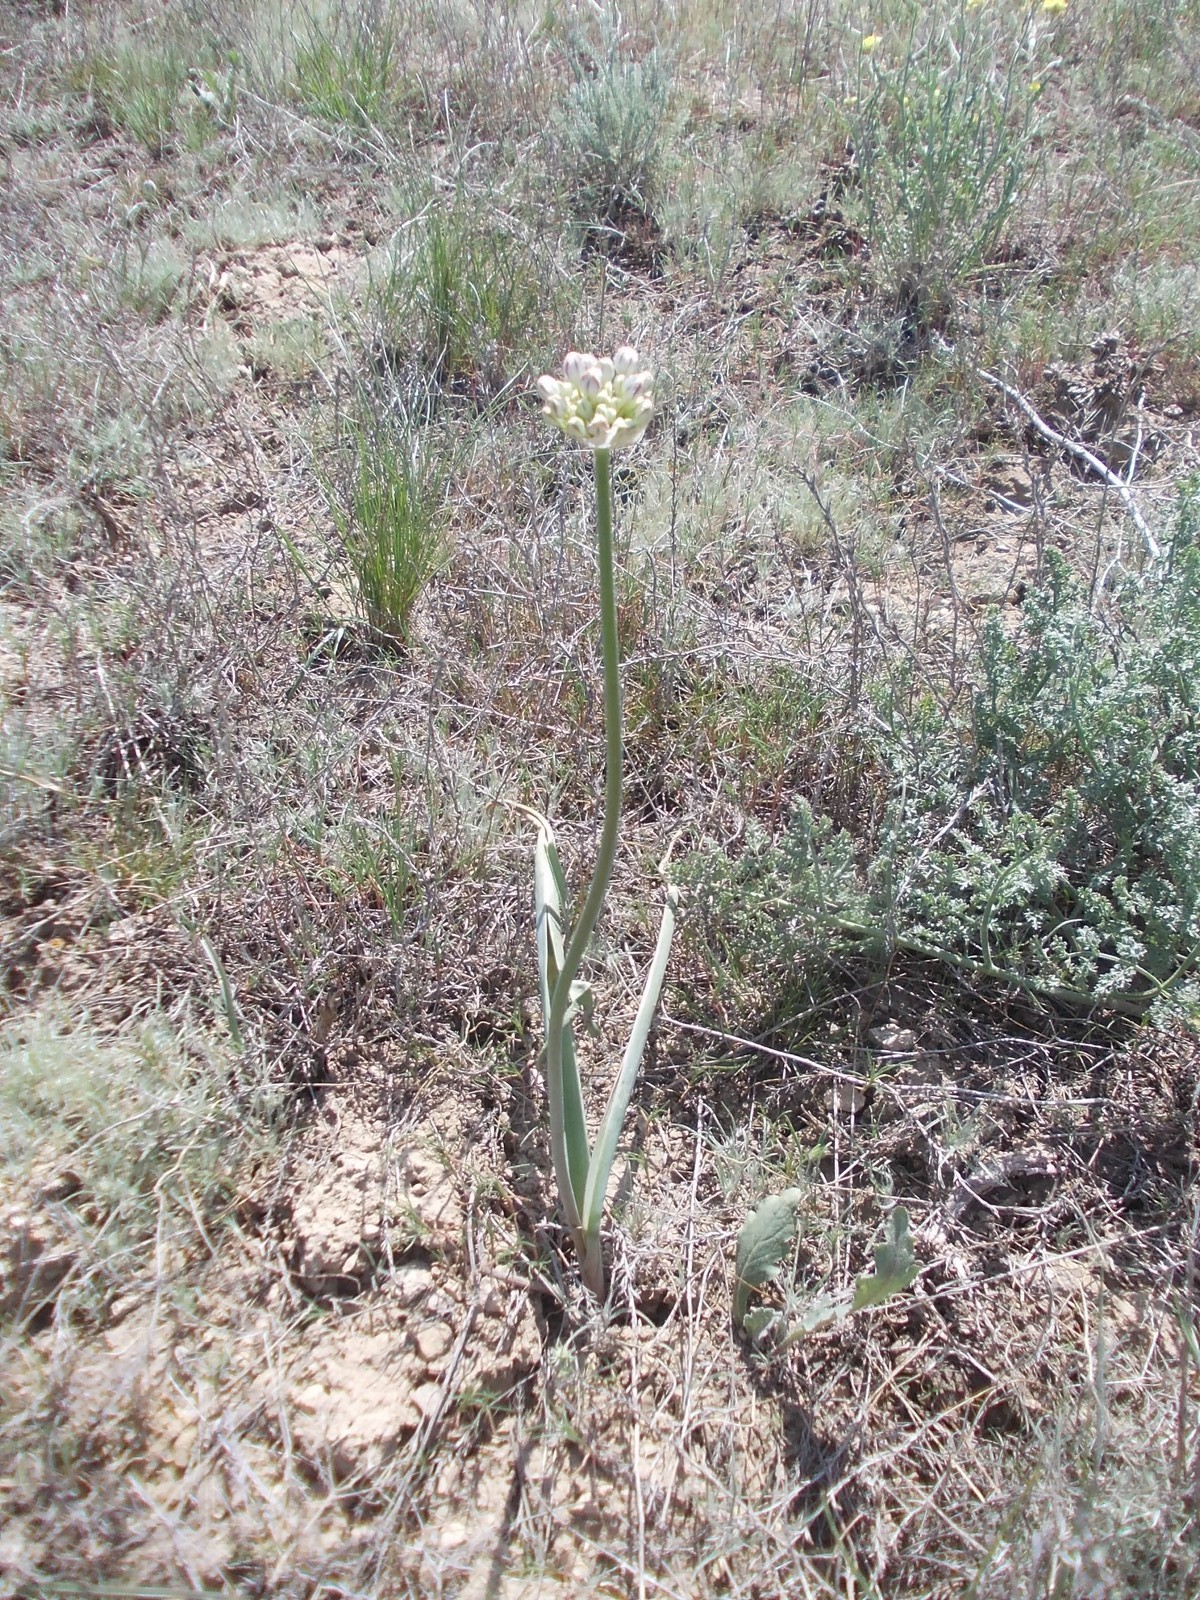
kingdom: Plantae
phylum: Tracheophyta
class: Liliopsida
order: Asparagales
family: Amaryllidaceae
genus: Allium
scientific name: Allium tulipifolium
